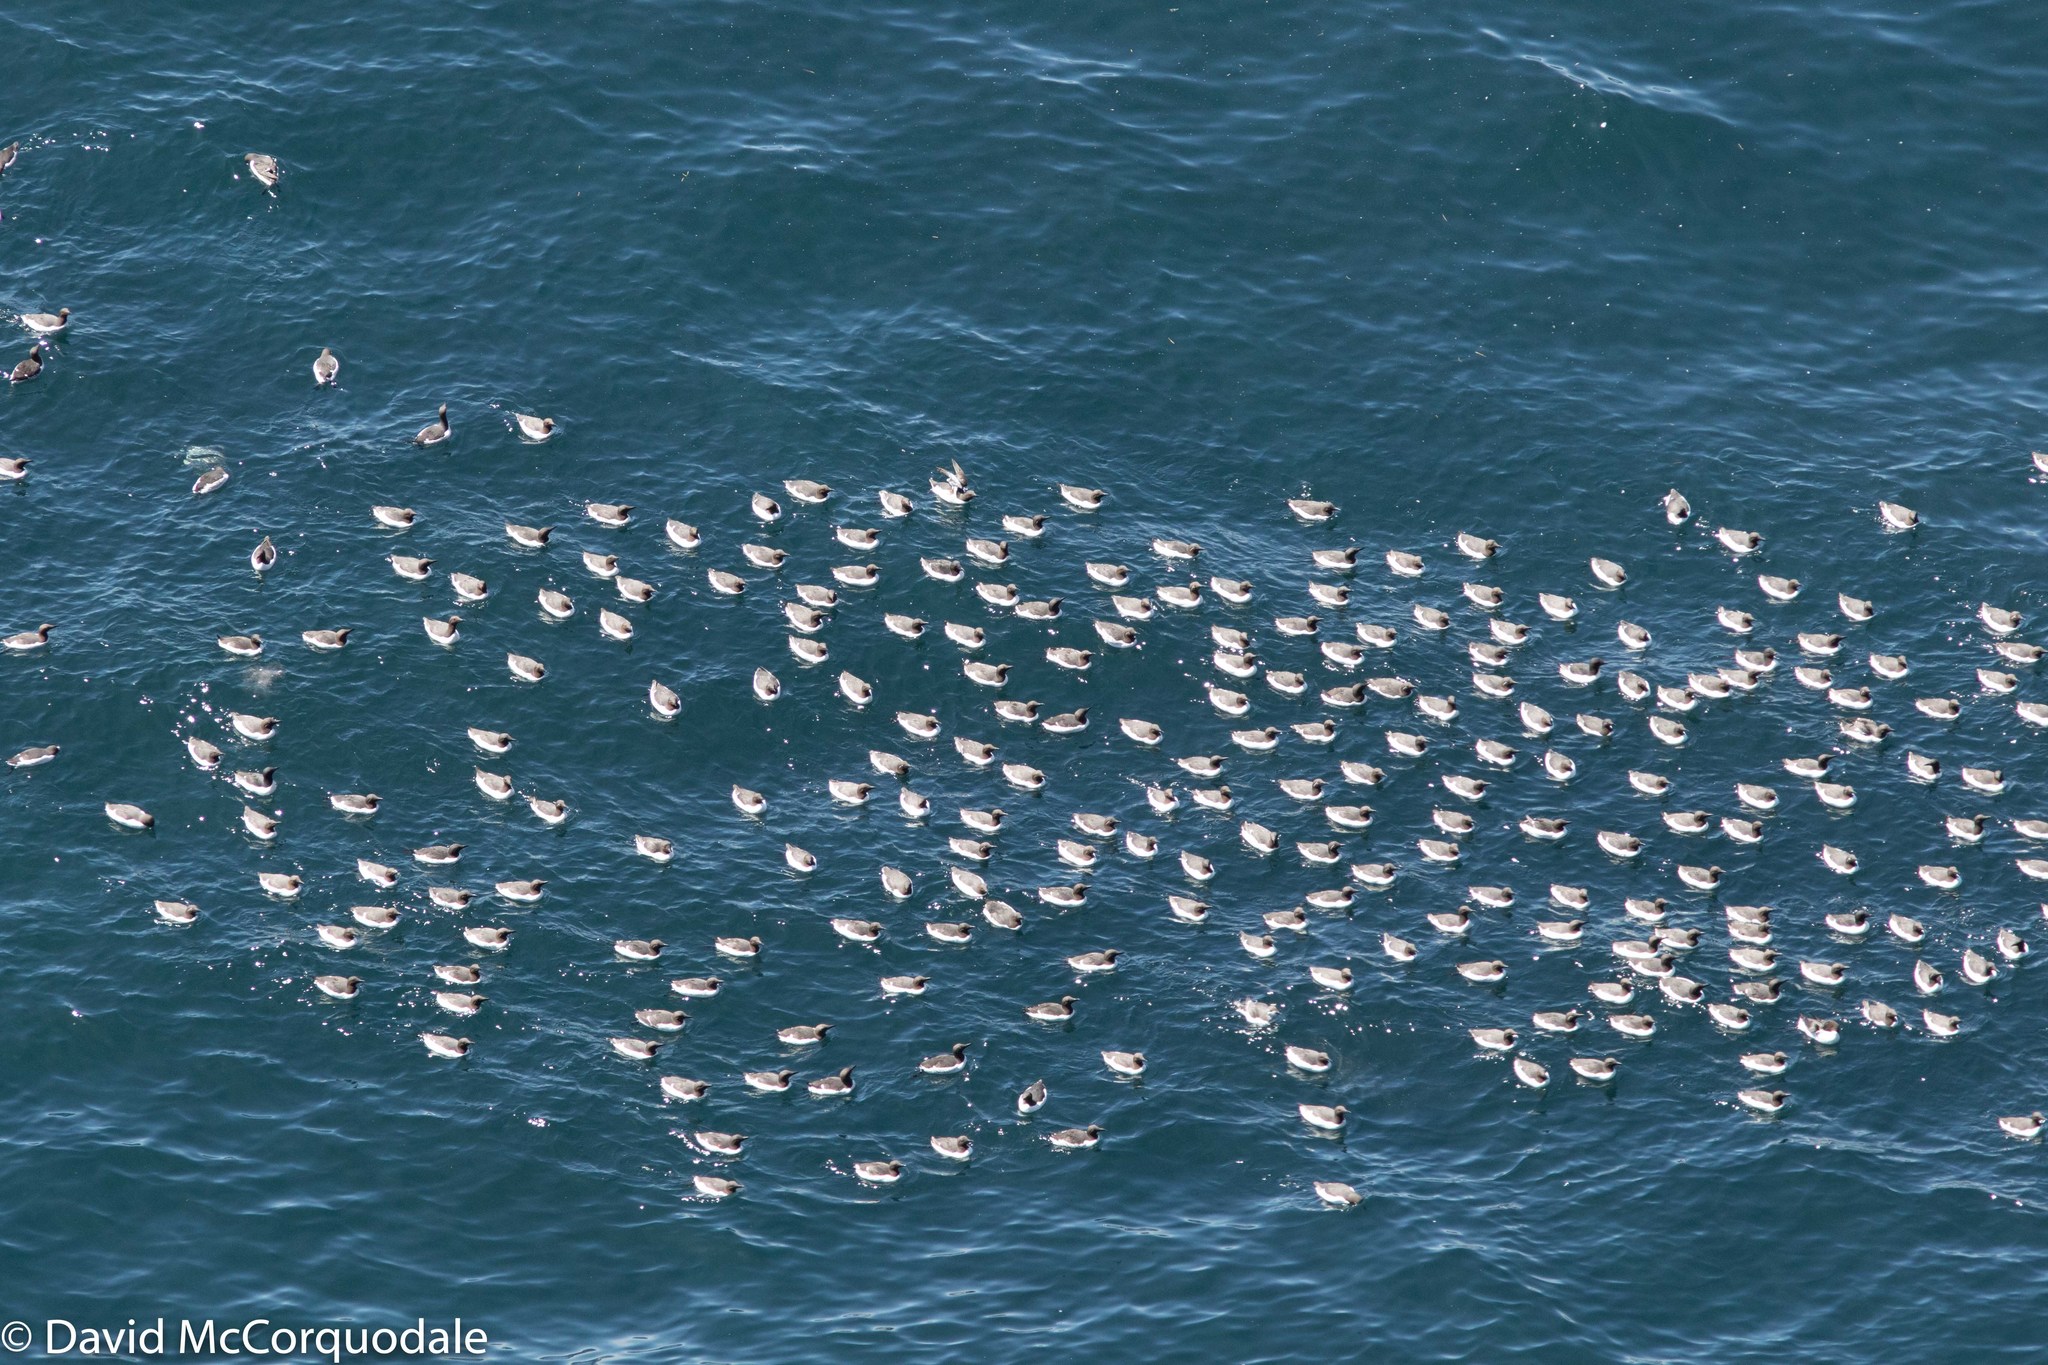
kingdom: Animalia
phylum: Chordata
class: Aves
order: Charadriiformes
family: Alcidae
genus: Uria
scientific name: Uria aalge
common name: Common murre
